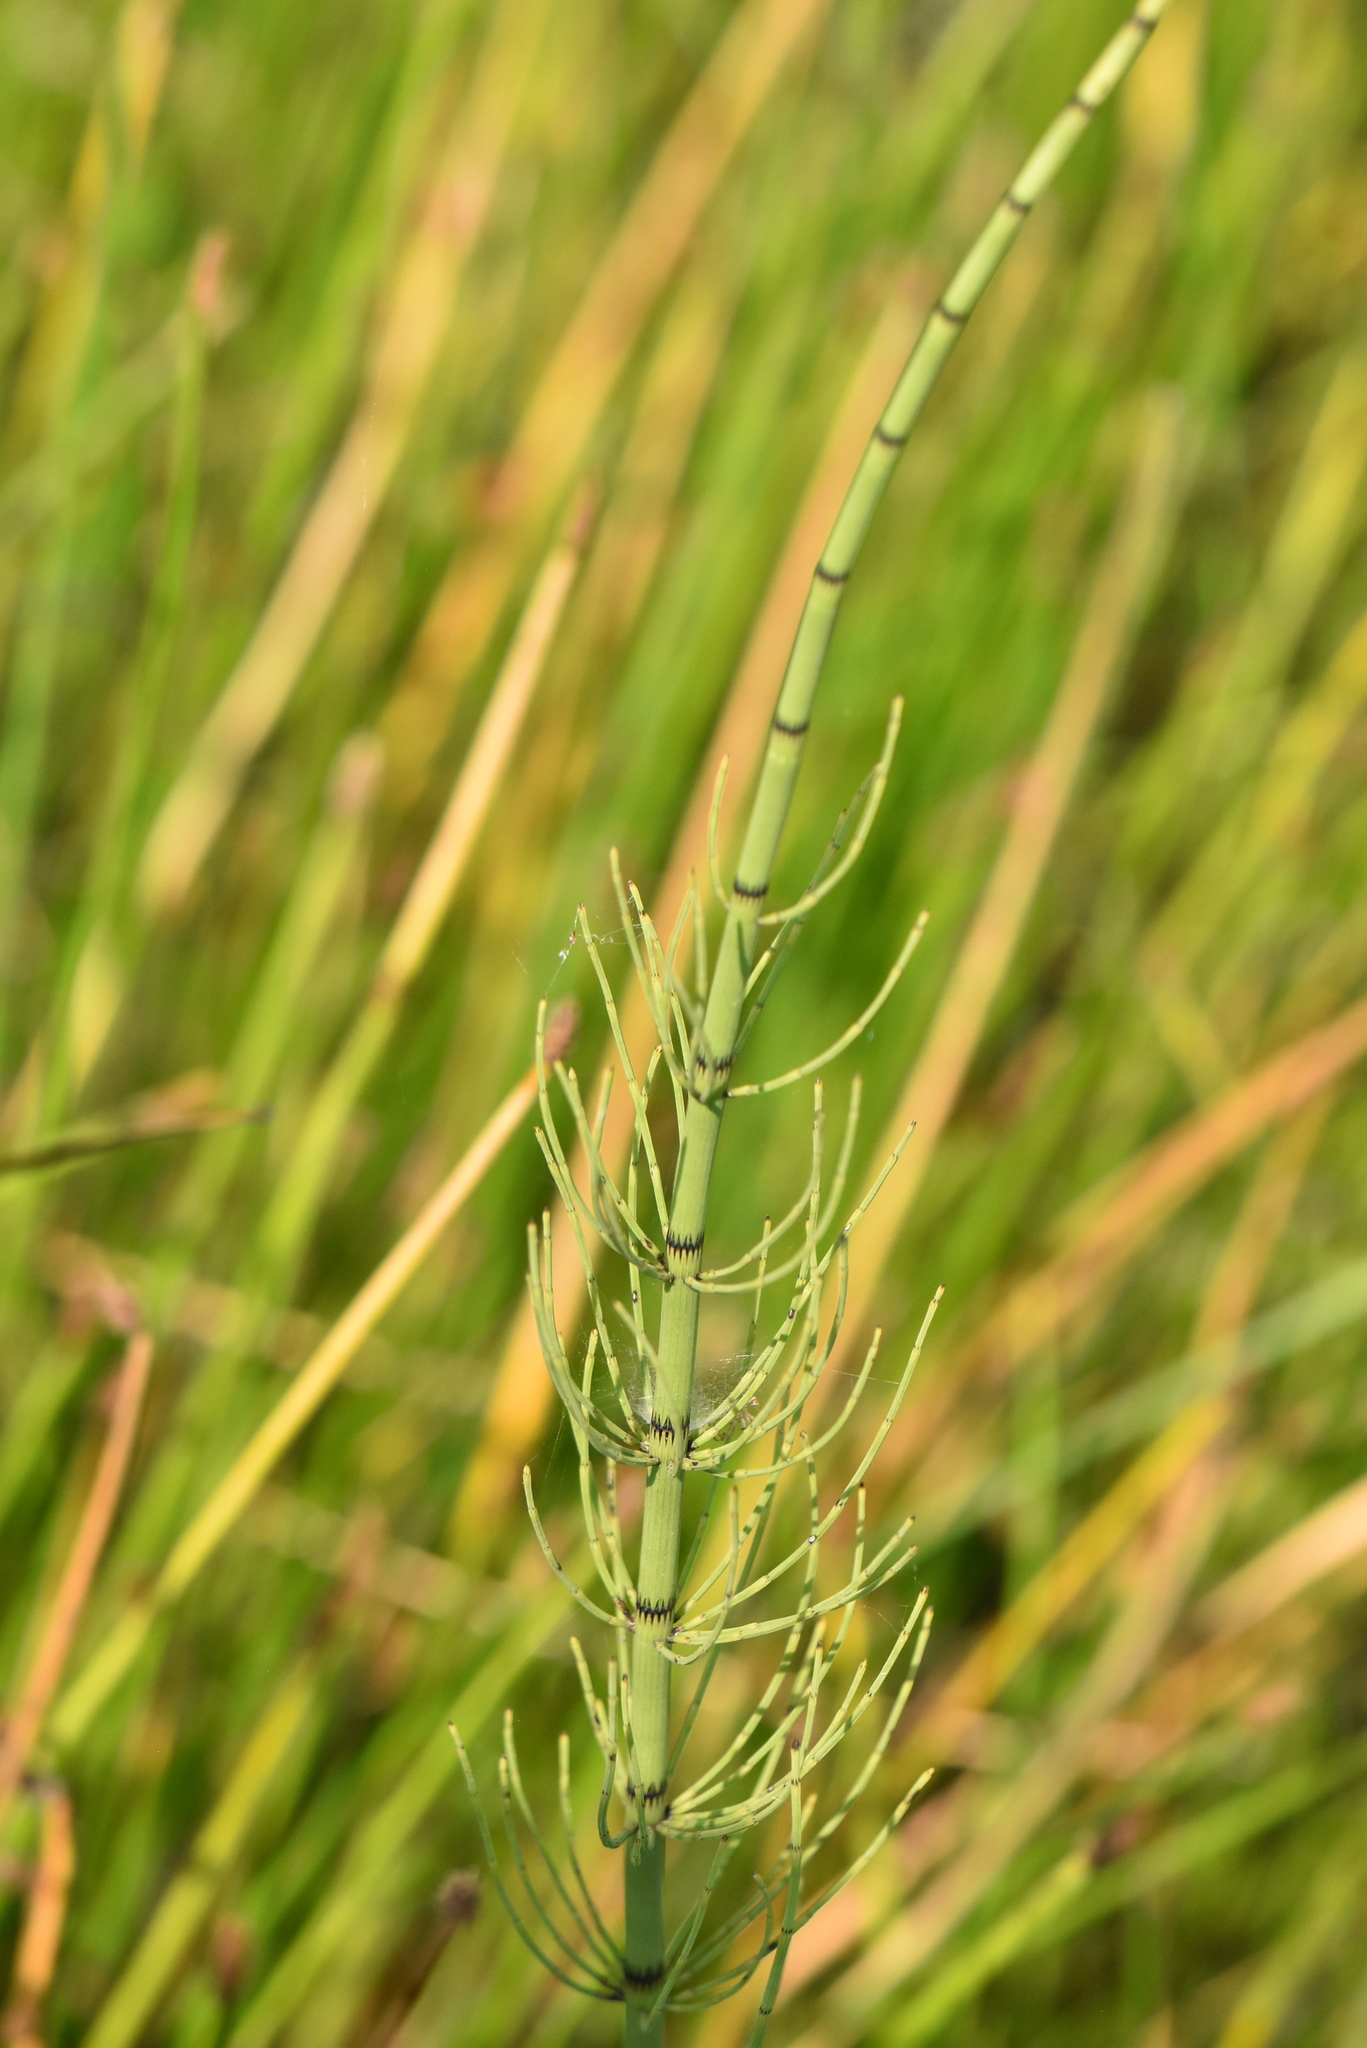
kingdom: Plantae
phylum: Tracheophyta
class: Polypodiopsida
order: Equisetales
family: Equisetaceae
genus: Equisetum
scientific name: Equisetum fluviatile
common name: Water horsetail
